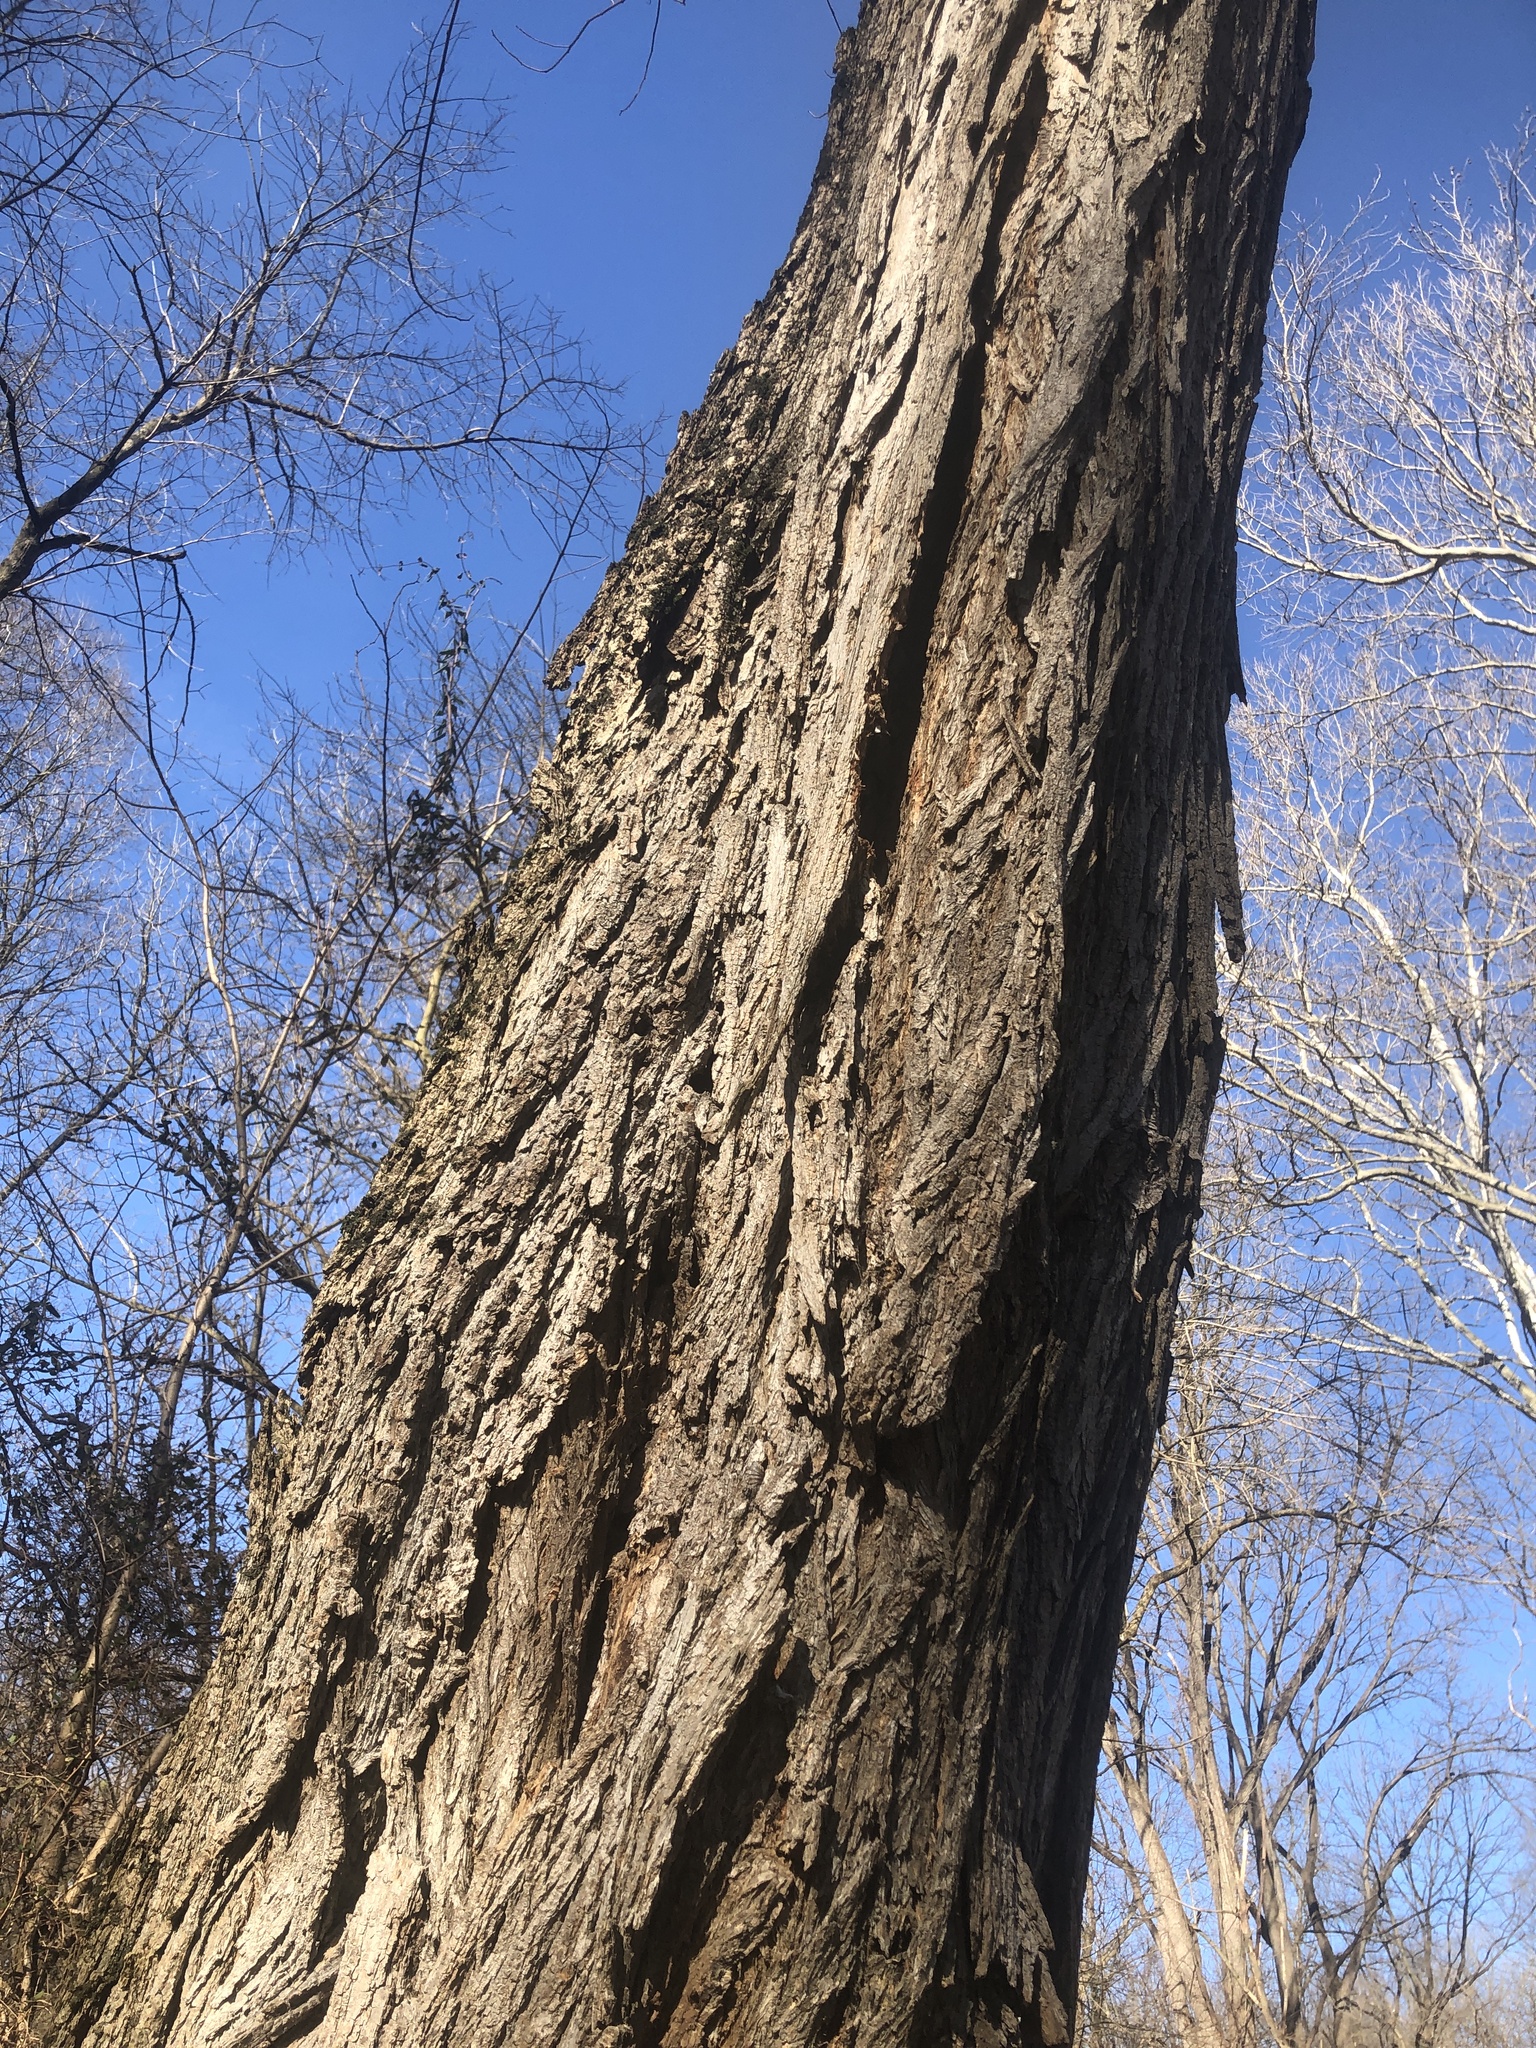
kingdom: Plantae
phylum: Tracheophyta
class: Magnoliopsida
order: Fabales
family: Fabaceae
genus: Robinia
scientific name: Robinia pseudoacacia
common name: Black locust
